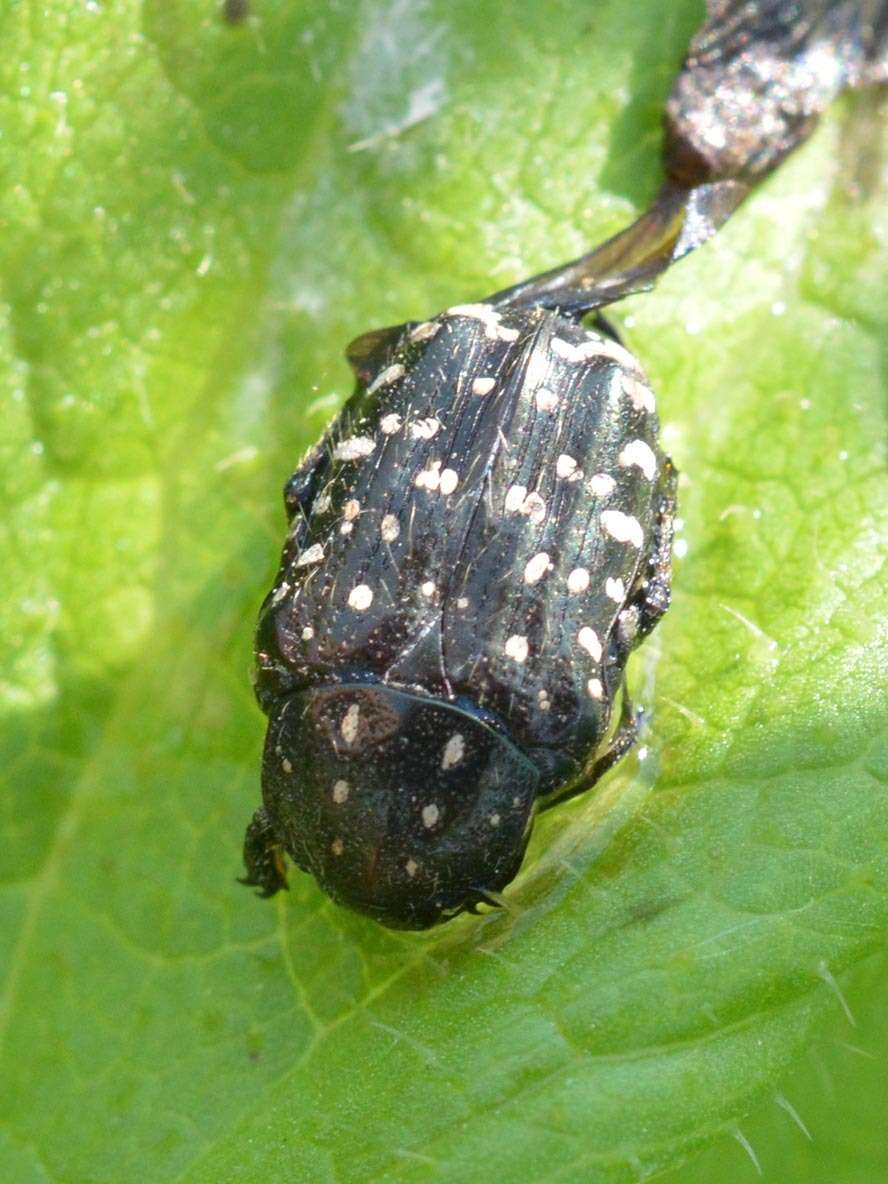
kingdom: Animalia
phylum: Arthropoda
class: Insecta
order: Coleoptera
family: Scarabaeidae
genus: Oxythyrea
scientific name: Oxythyrea funesta
